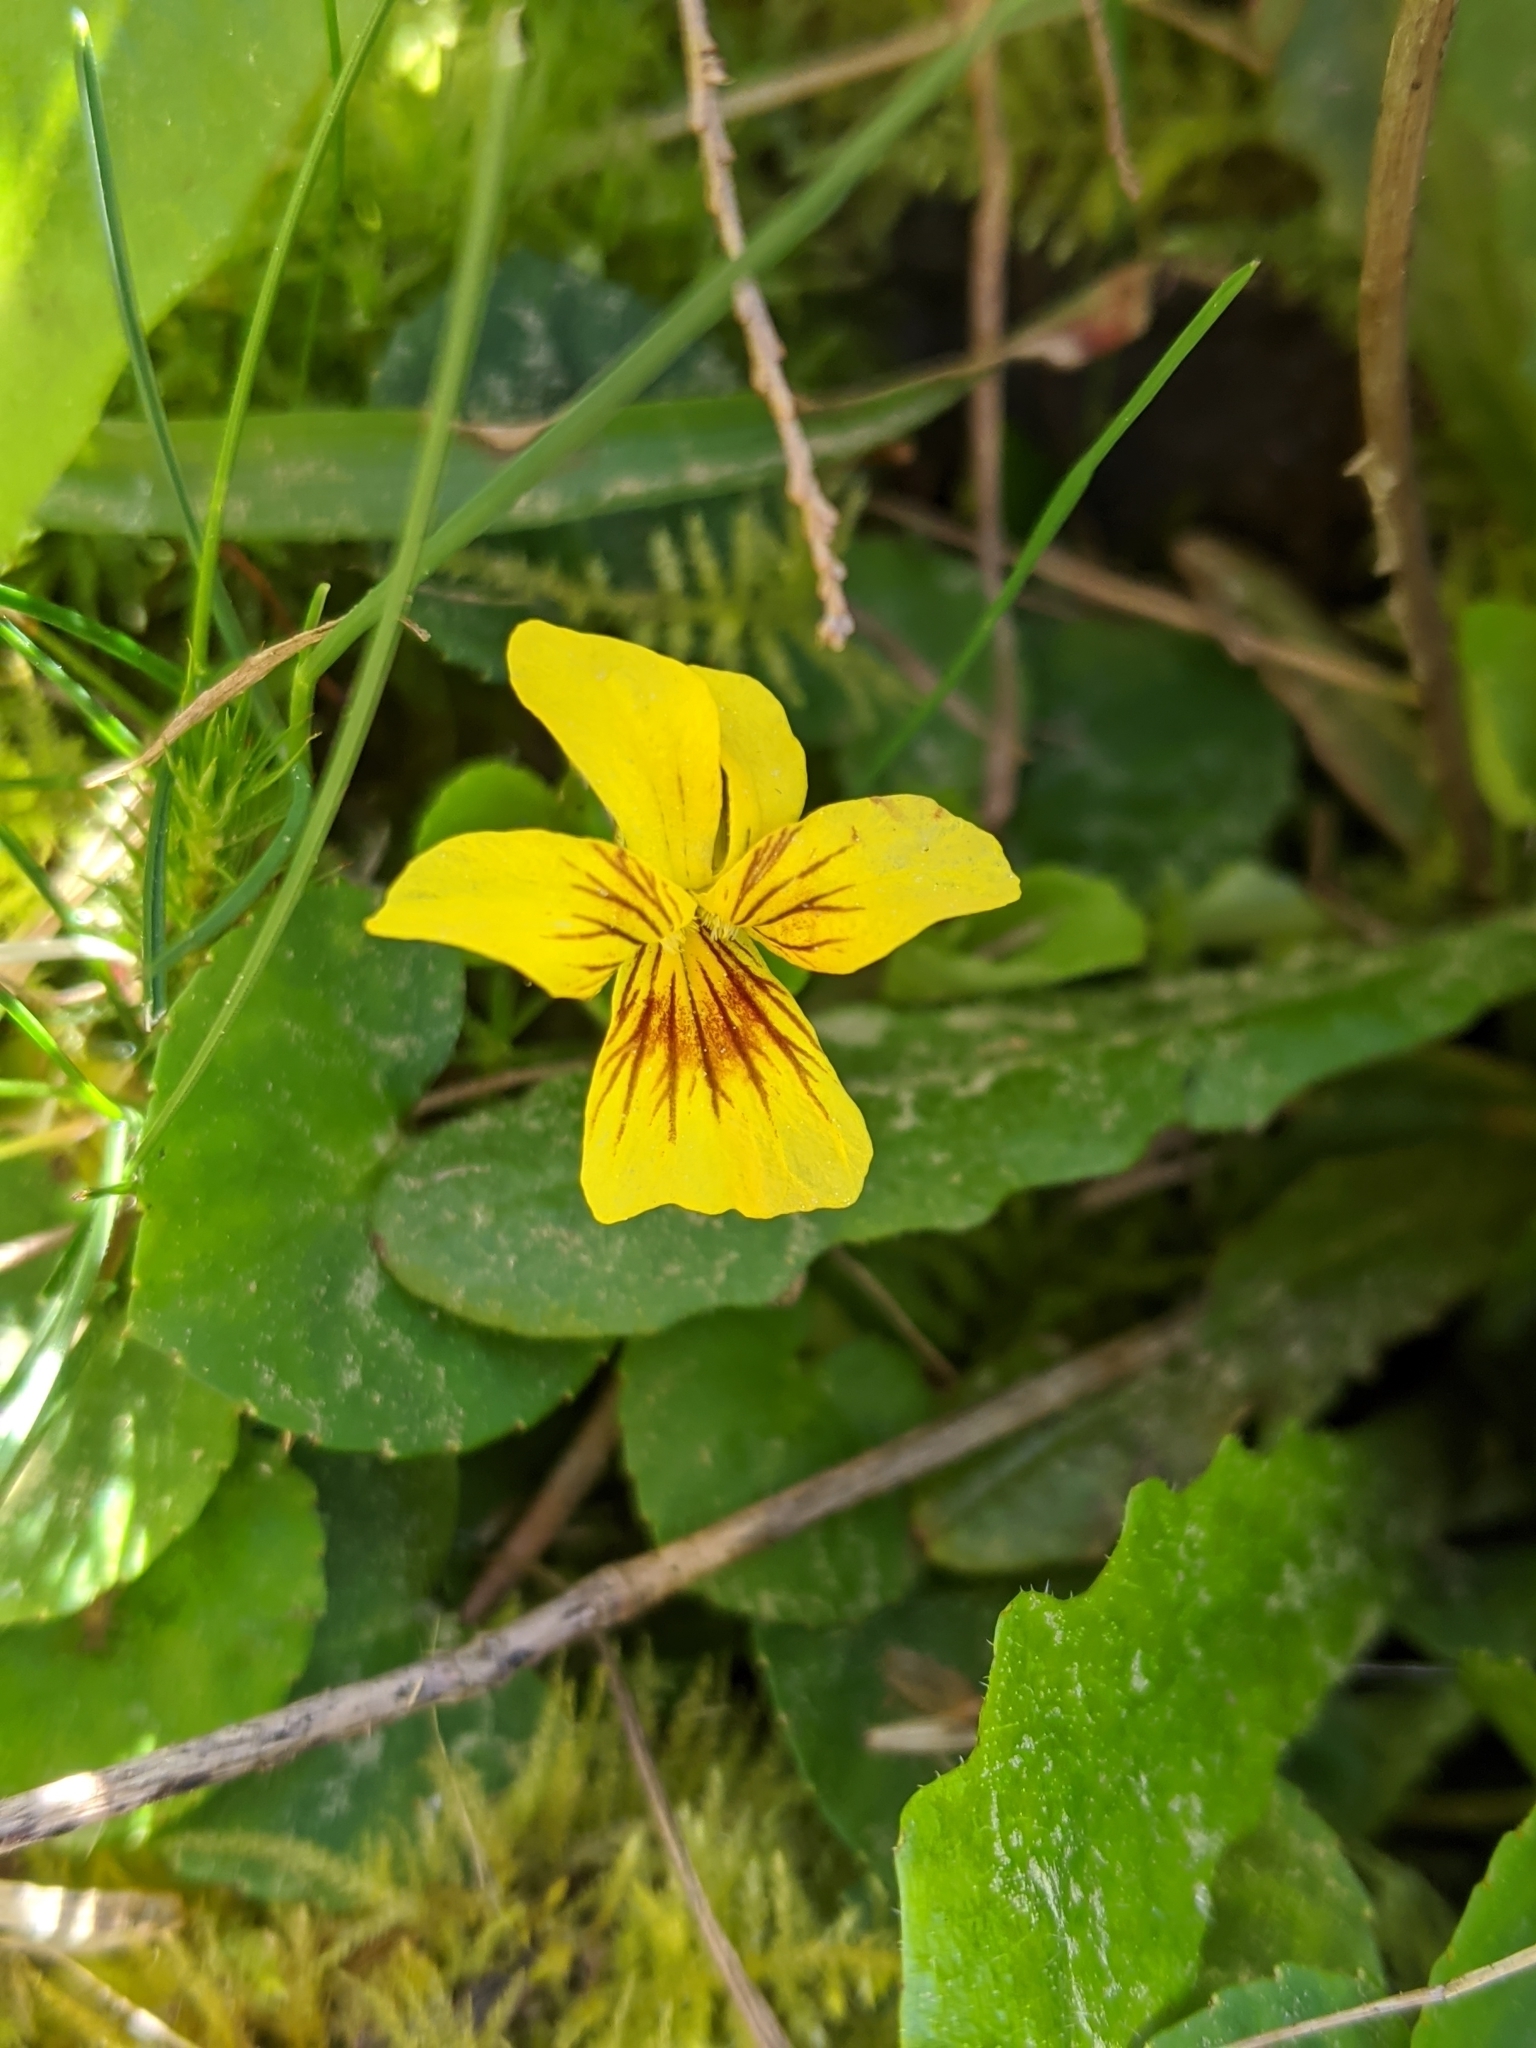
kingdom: Plantae
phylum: Tracheophyta
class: Magnoliopsida
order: Malpighiales
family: Violaceae
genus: Viola
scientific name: Viola sempervirens
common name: Evergreen violet
